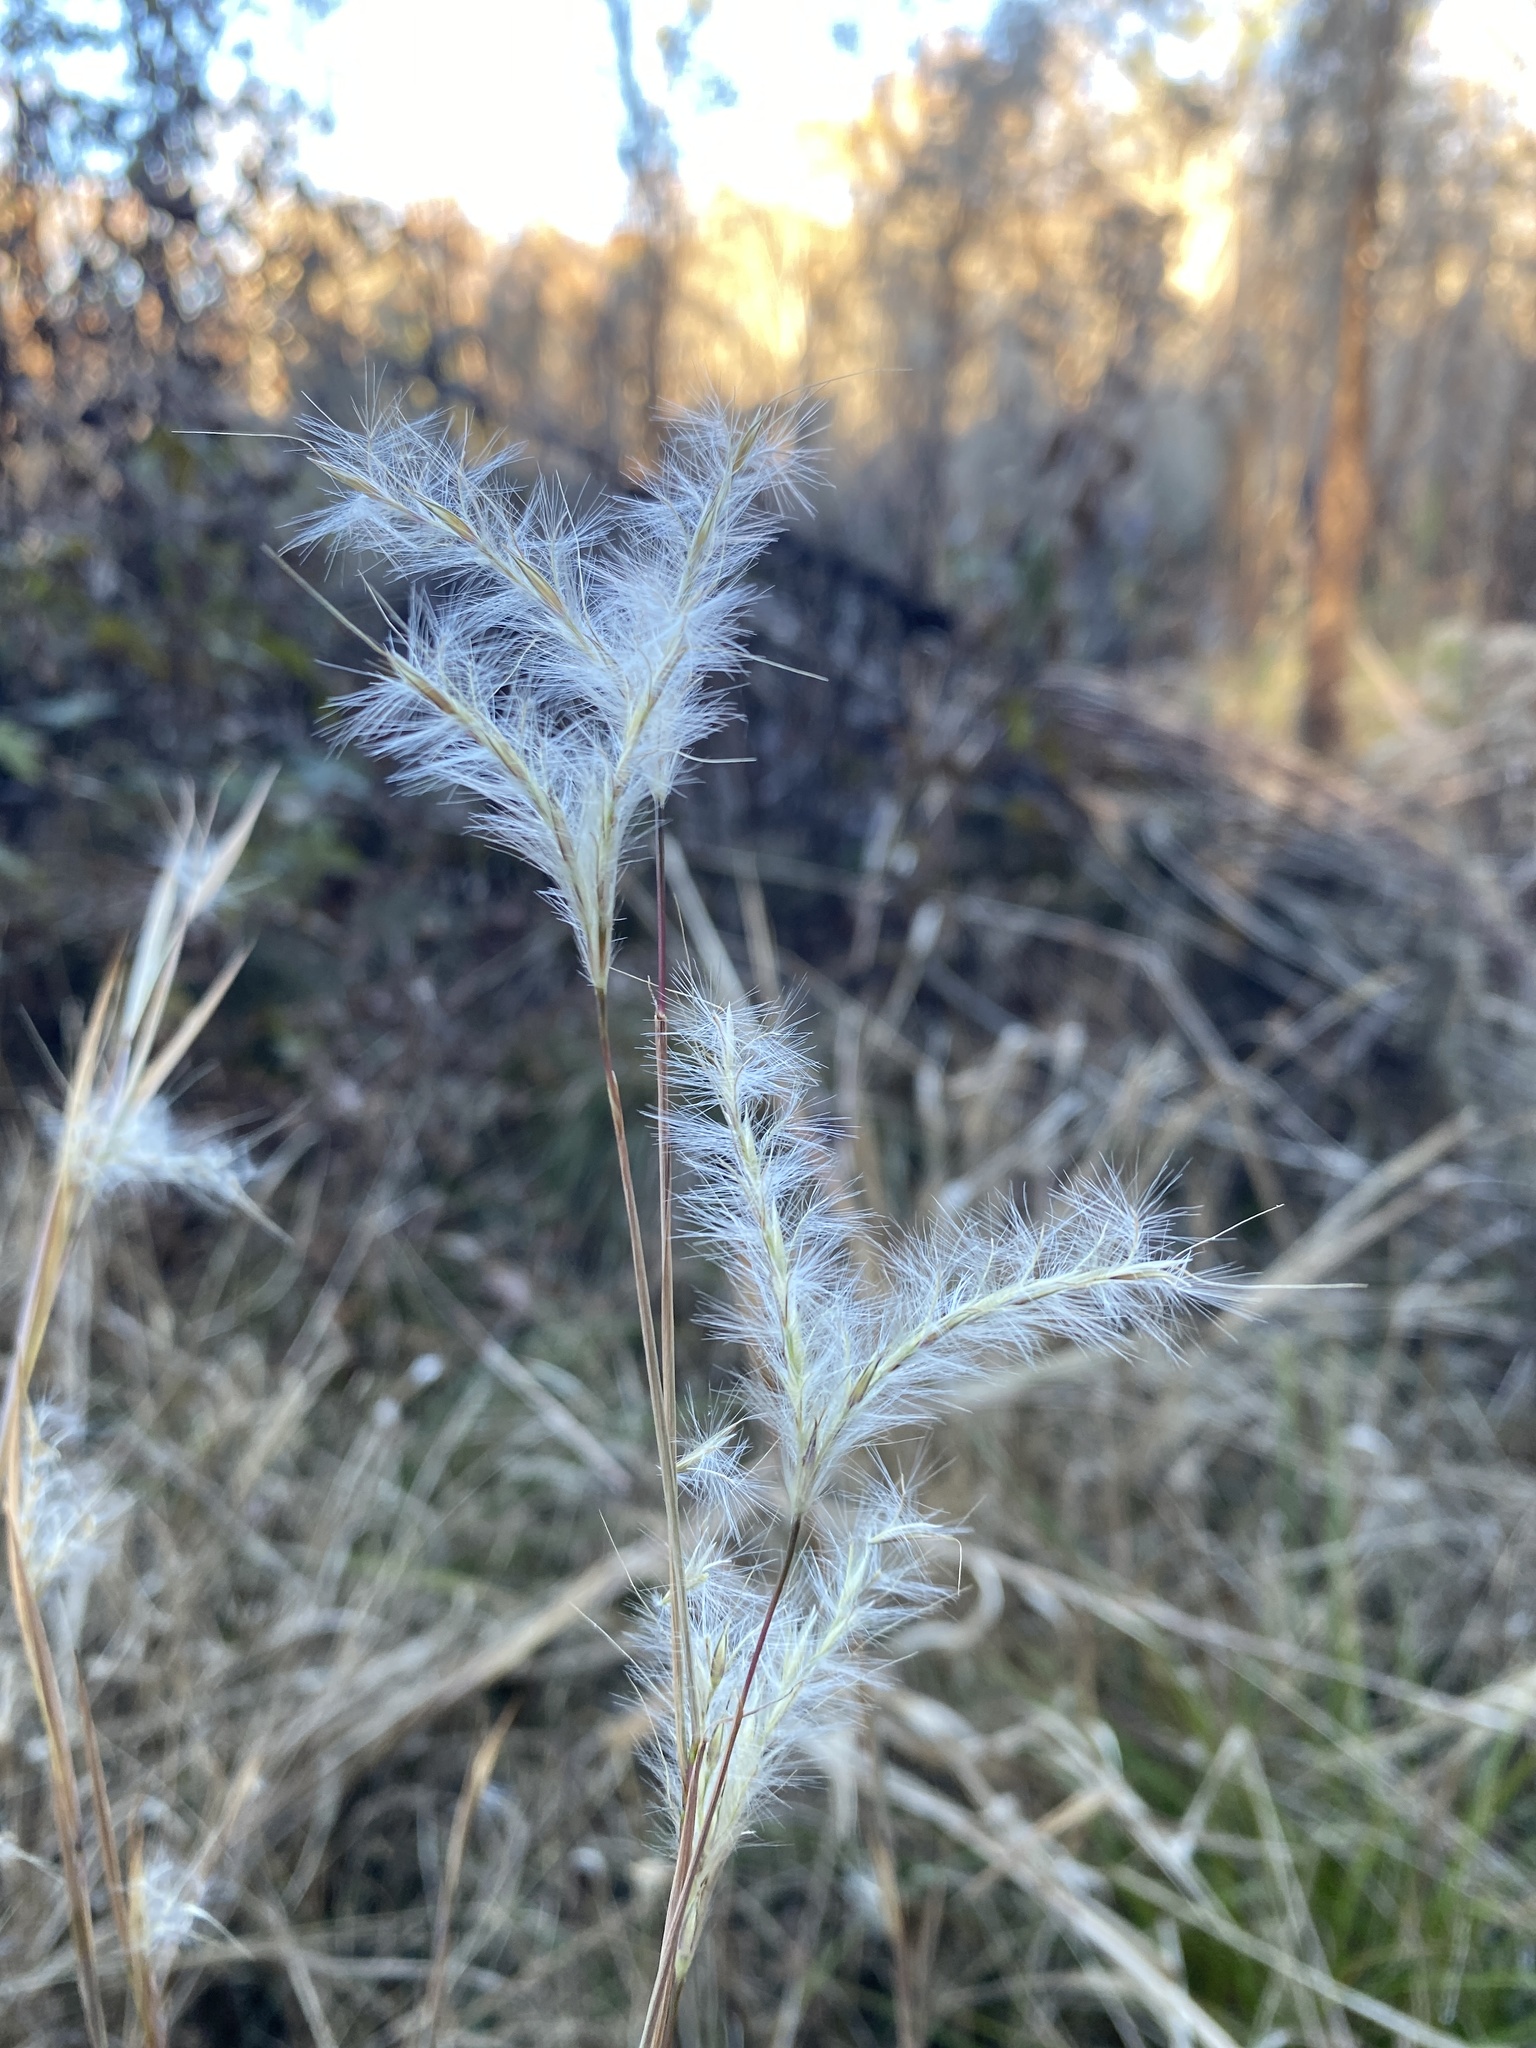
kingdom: Plantae
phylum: Tracheophyta
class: Liliopsida
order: Poales
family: Poaceae
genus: Andropogon
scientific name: Andropogon ternarius
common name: Split bluestem
